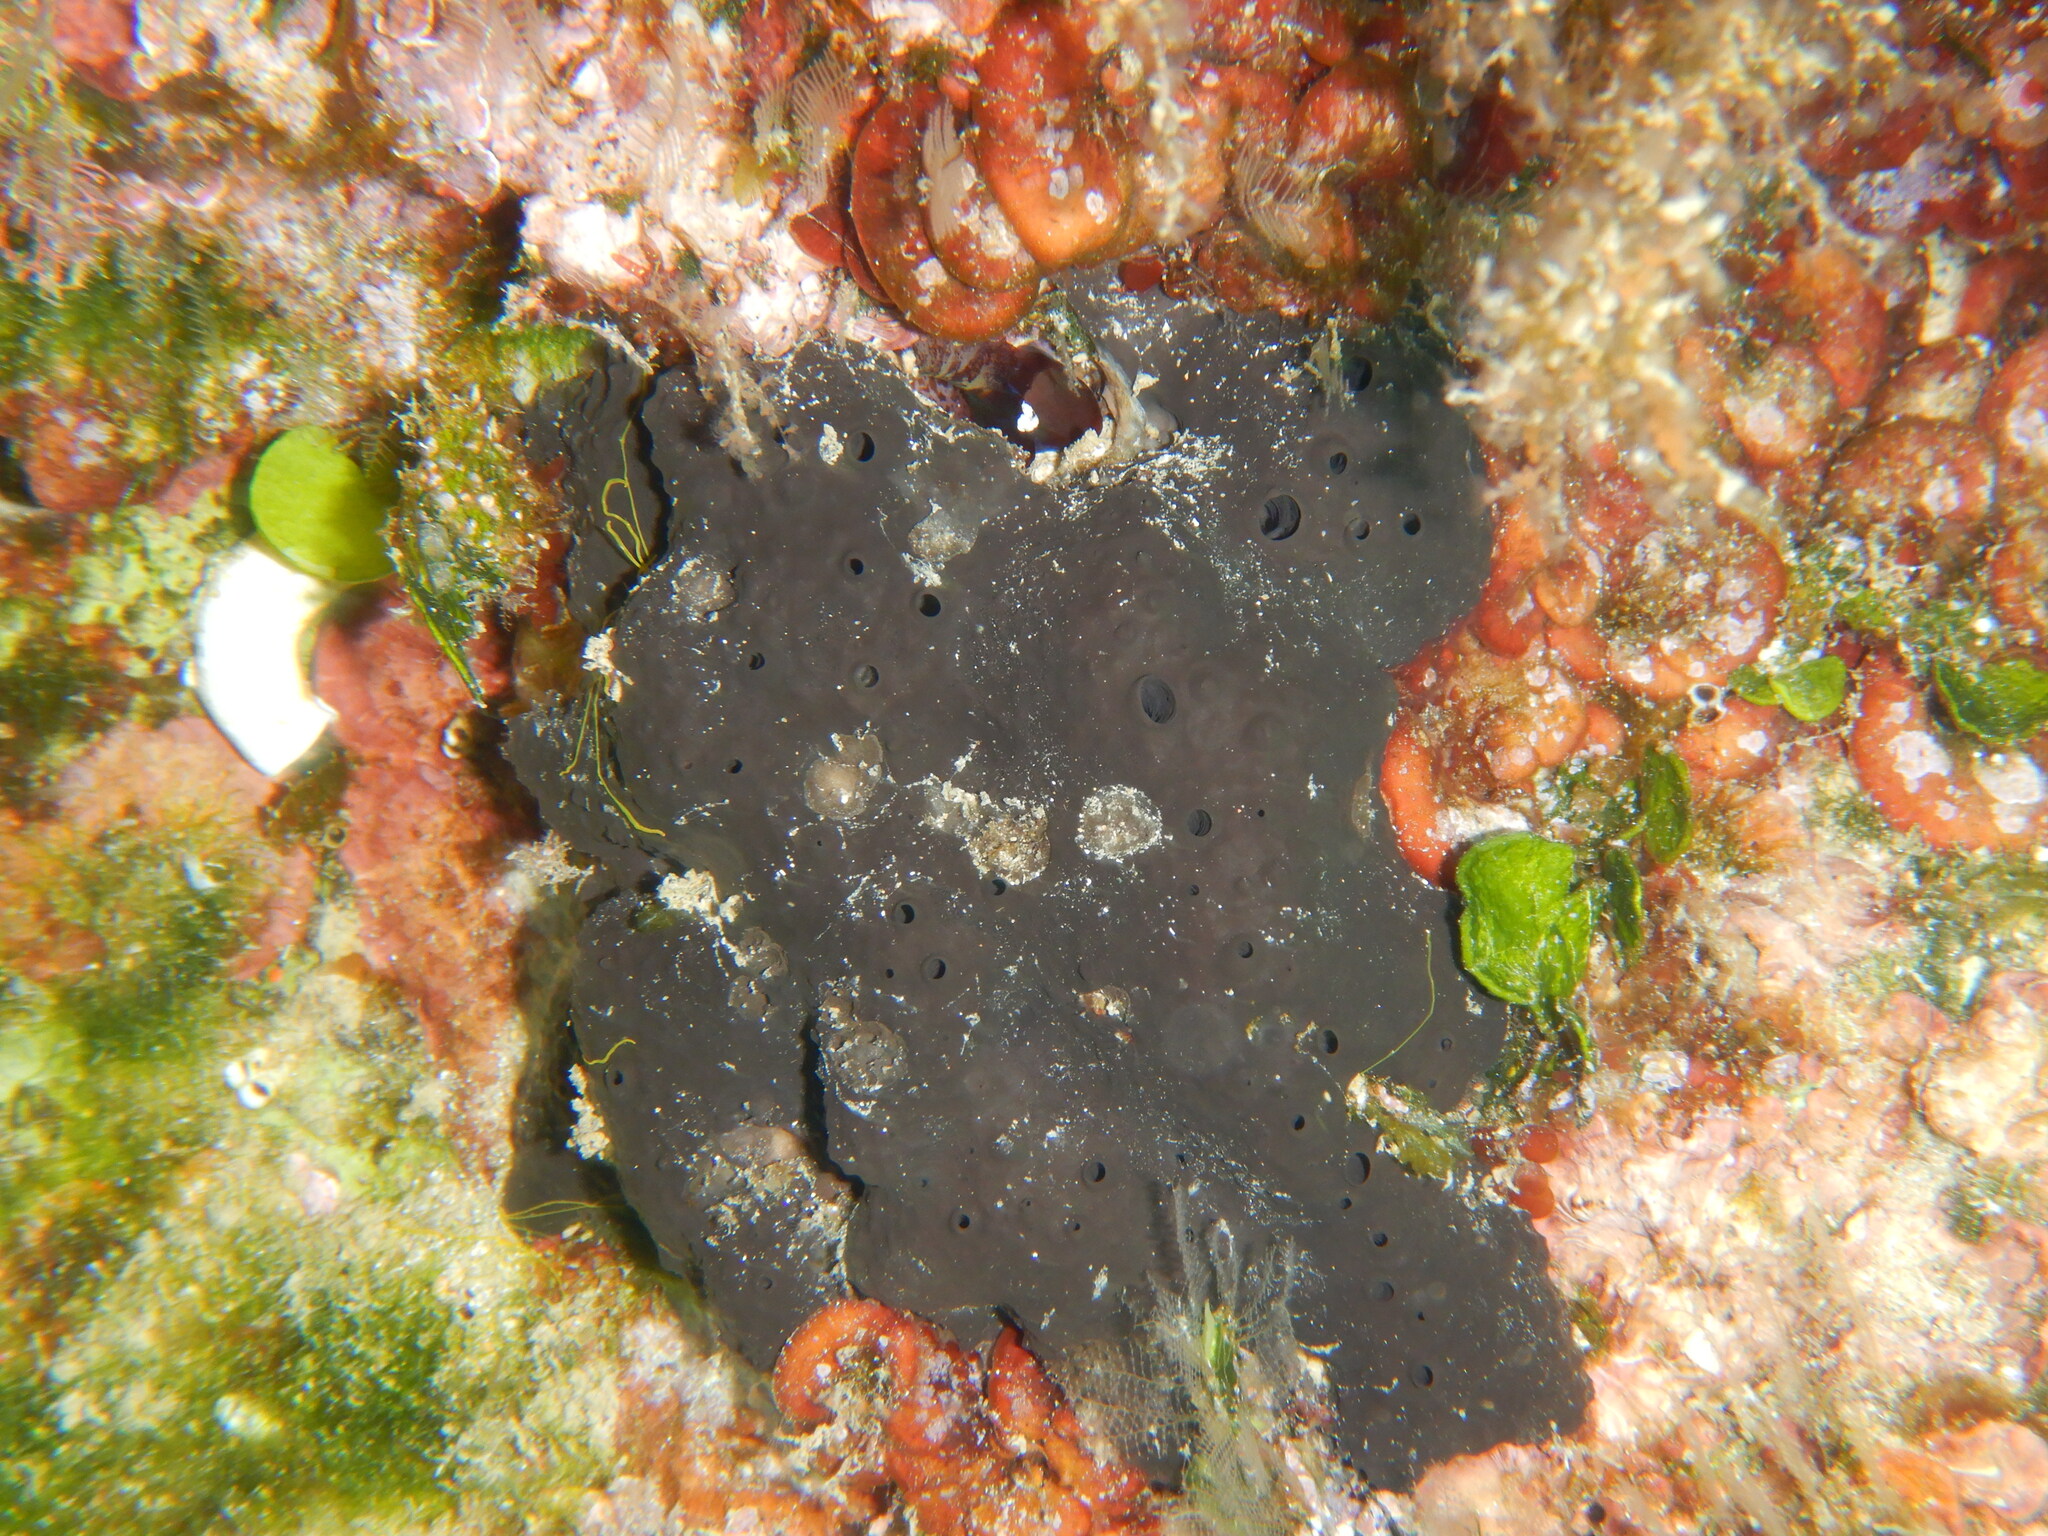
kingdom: Animalia
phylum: Porifera
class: Demospongiae
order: Dictyoceratida
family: Irciniidae
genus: Sarcotragus
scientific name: Sarcotragus spinosulus
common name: Black leather sponge
